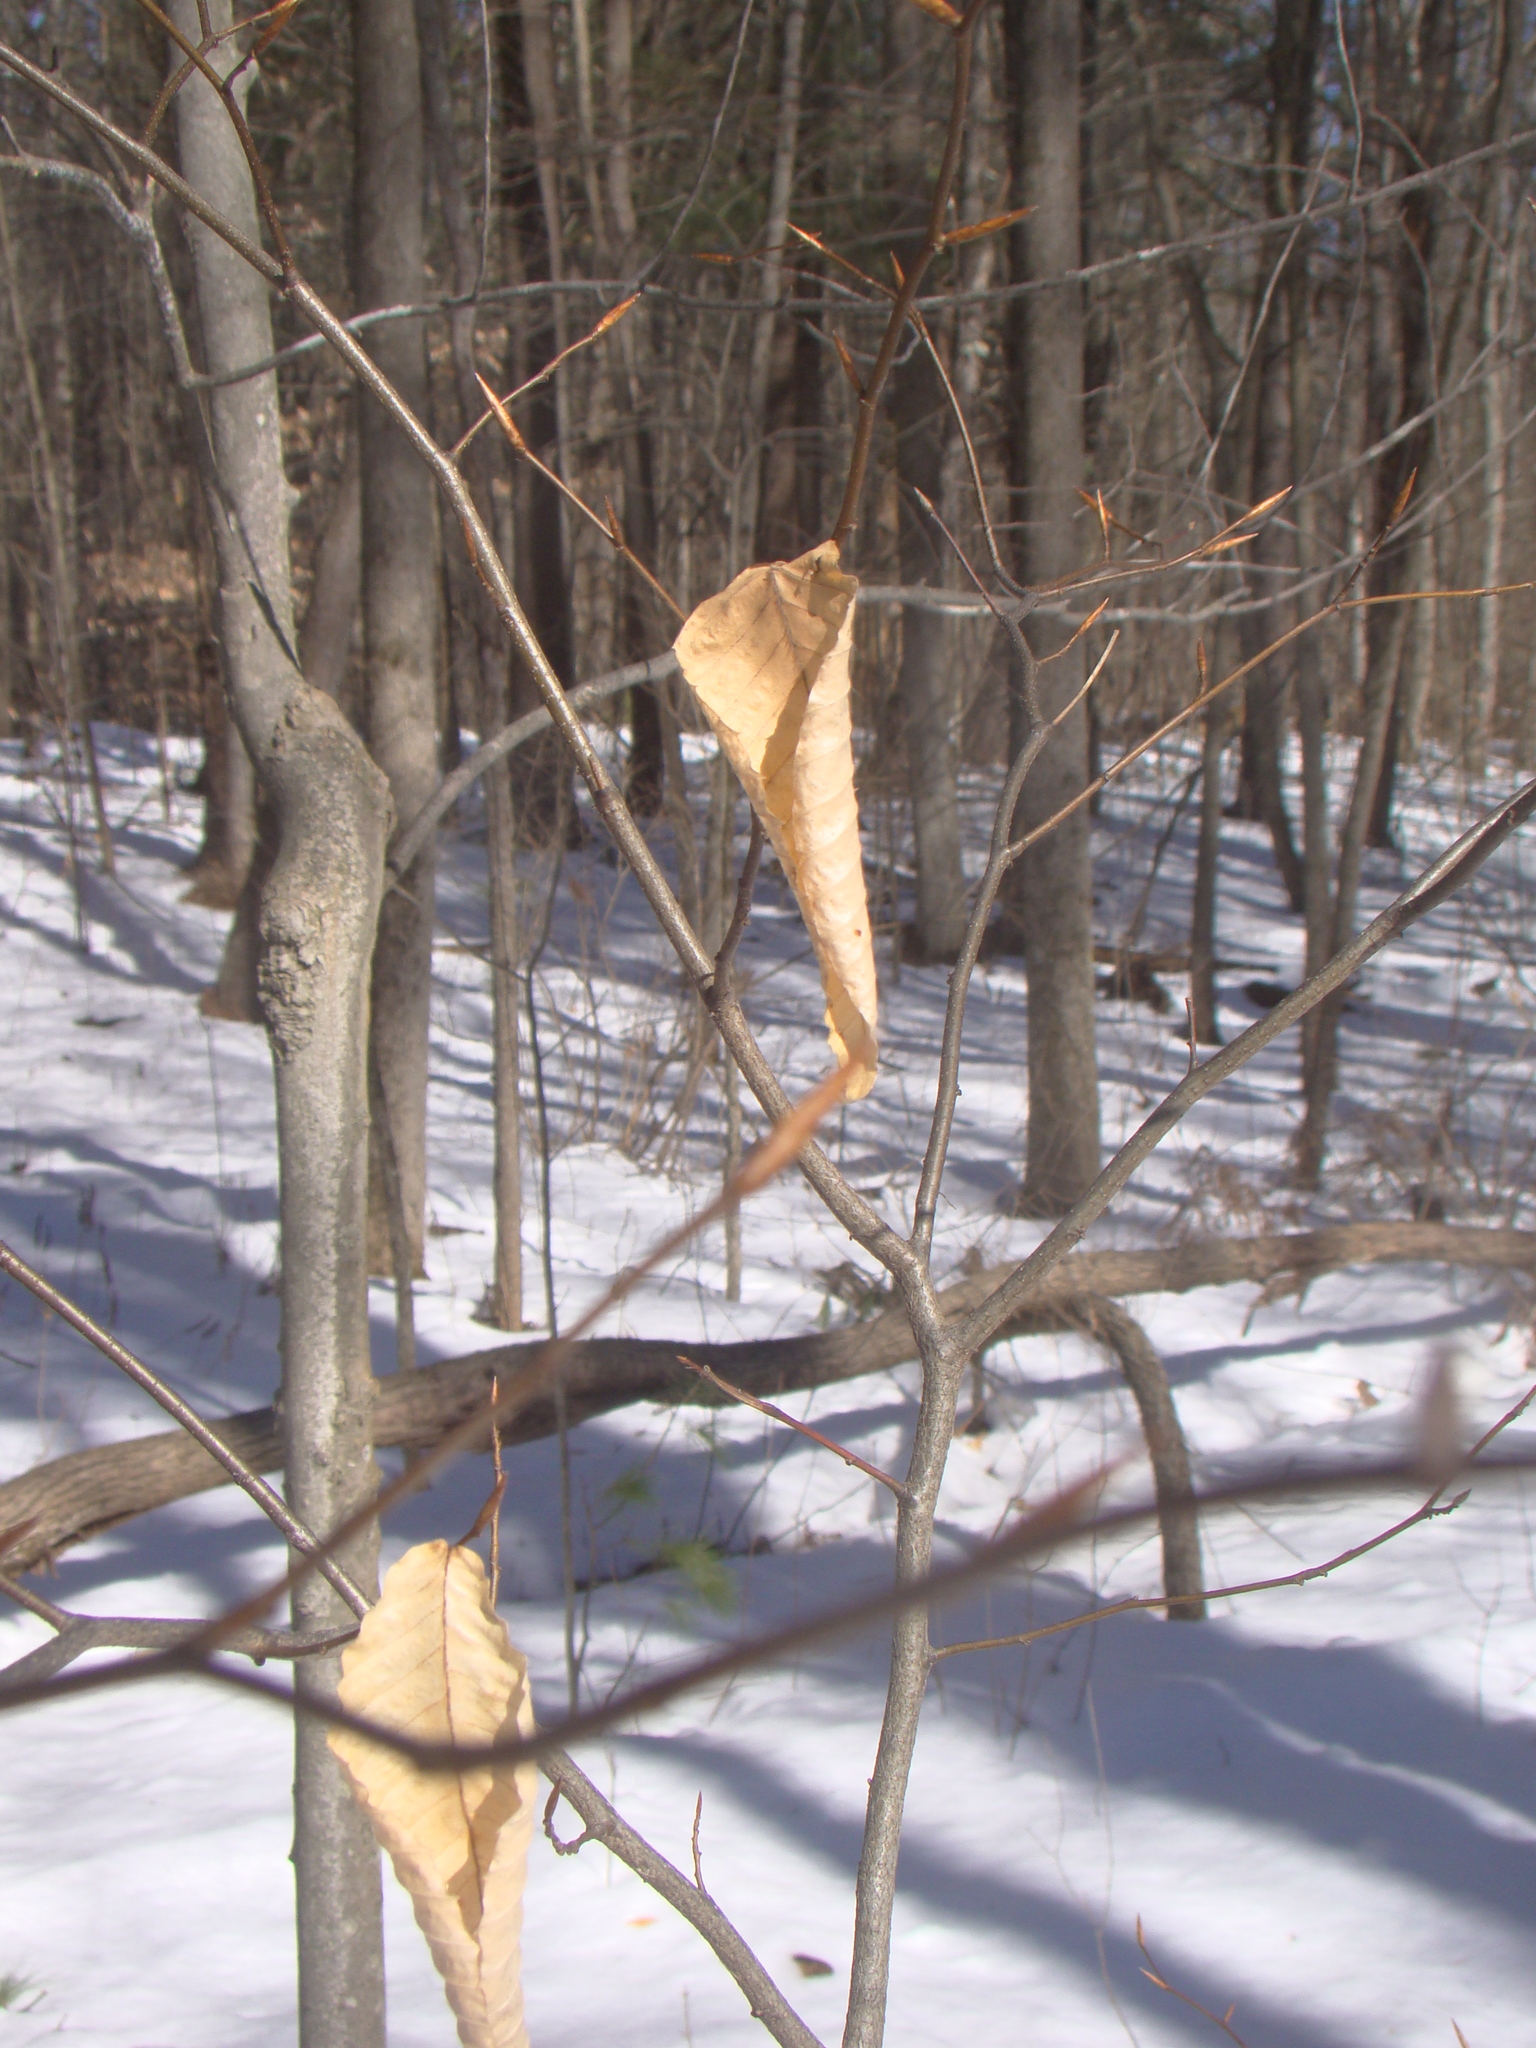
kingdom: Plantae
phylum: Tracheophyta
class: Magnoliopsida
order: Fagales
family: Fagaceae
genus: Fagus
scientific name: Fagus grandifolia
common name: American beech
